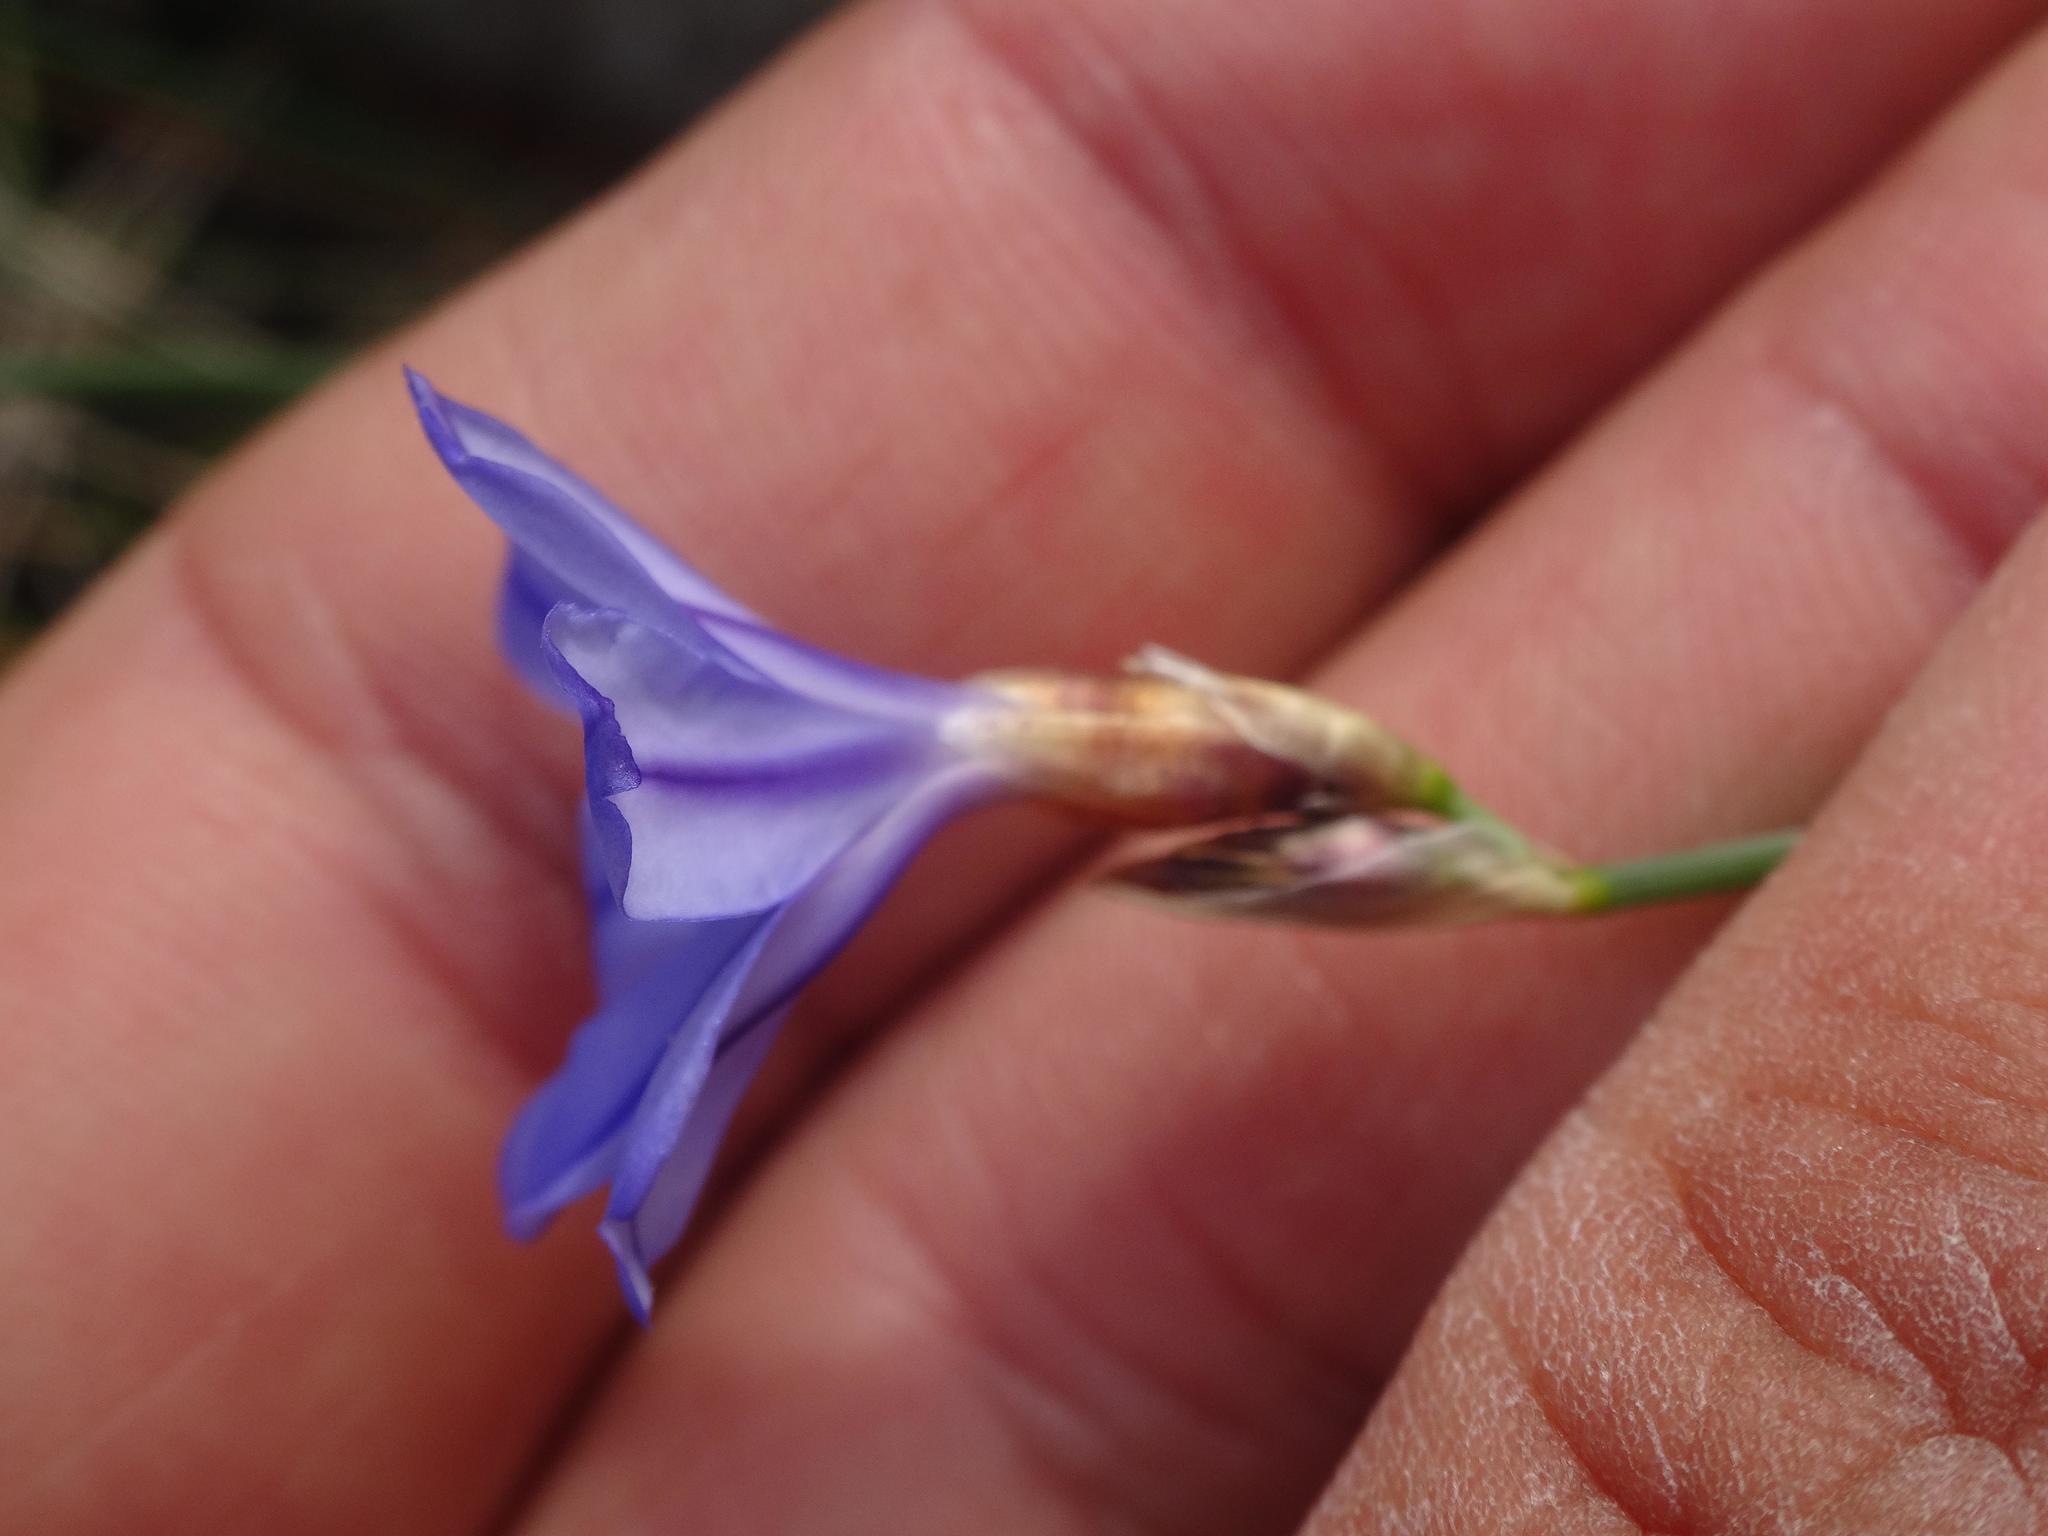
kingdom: Plantae
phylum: Tracheophyta
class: Liliopsida
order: Asparagales
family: Asparagaceae
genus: Aphyllanthes
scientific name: Aphyllanthes monspeliensis
